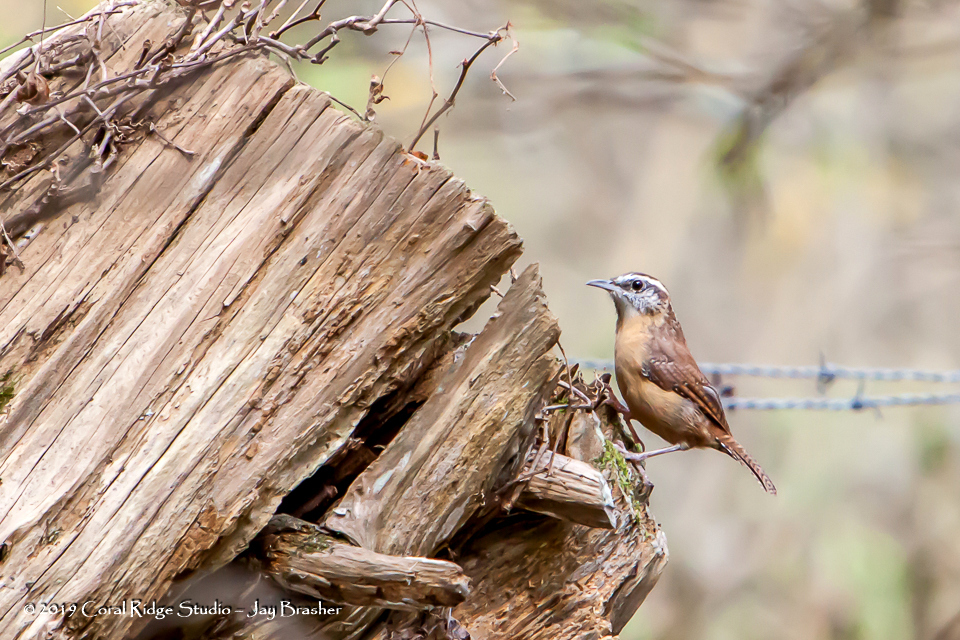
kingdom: Animalia
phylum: Chordata
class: Aves
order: Passeriformes
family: Troglodytidae
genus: Thryothorus
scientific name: Thryothorus ludovicianus
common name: Carolina wren
